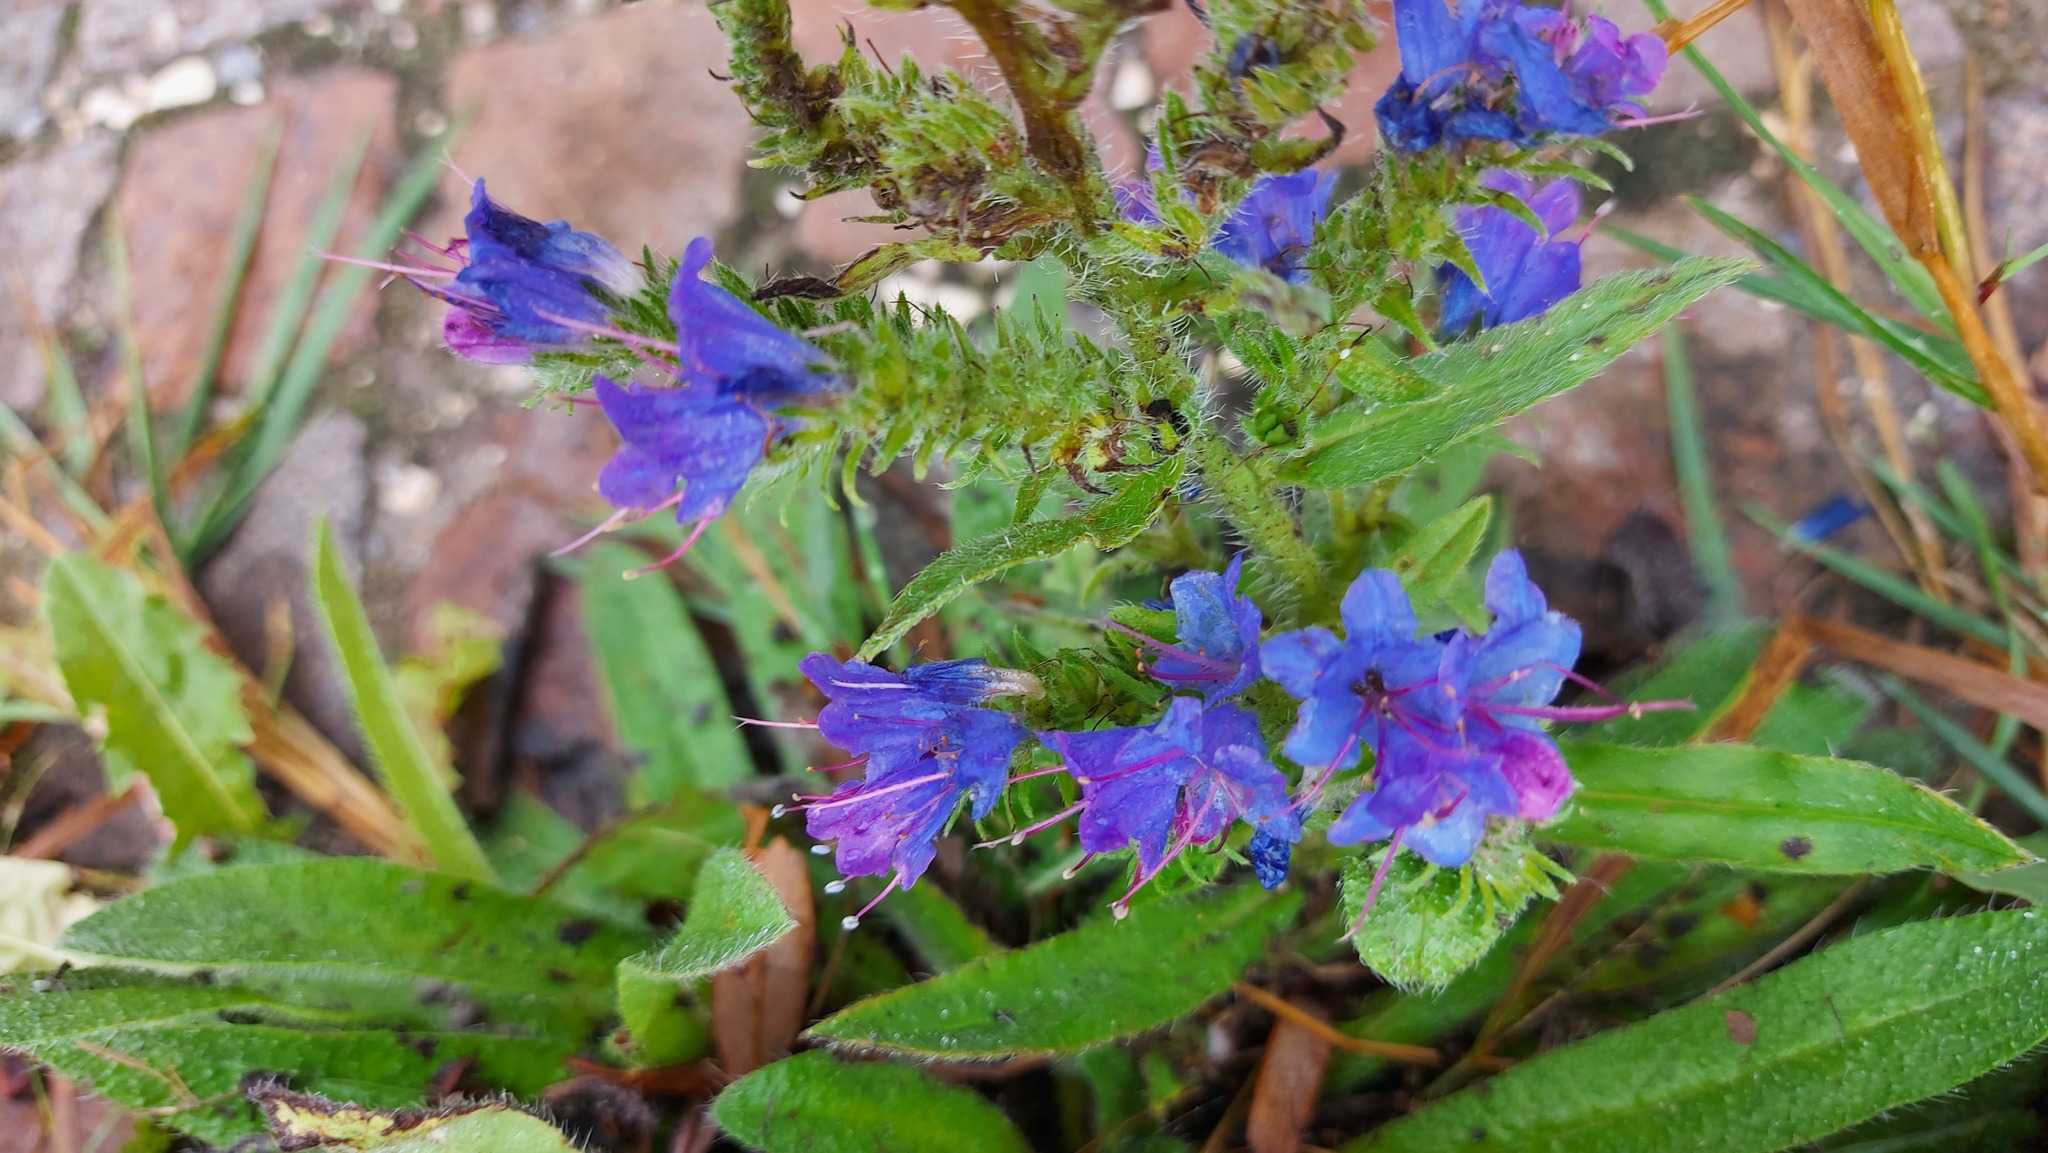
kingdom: Plantae
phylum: Tracheophyta
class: Magnoliopsida
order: Boraginales
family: Boraginaceae
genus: Echium
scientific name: Echium vulgare
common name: Common viper's bugloss
